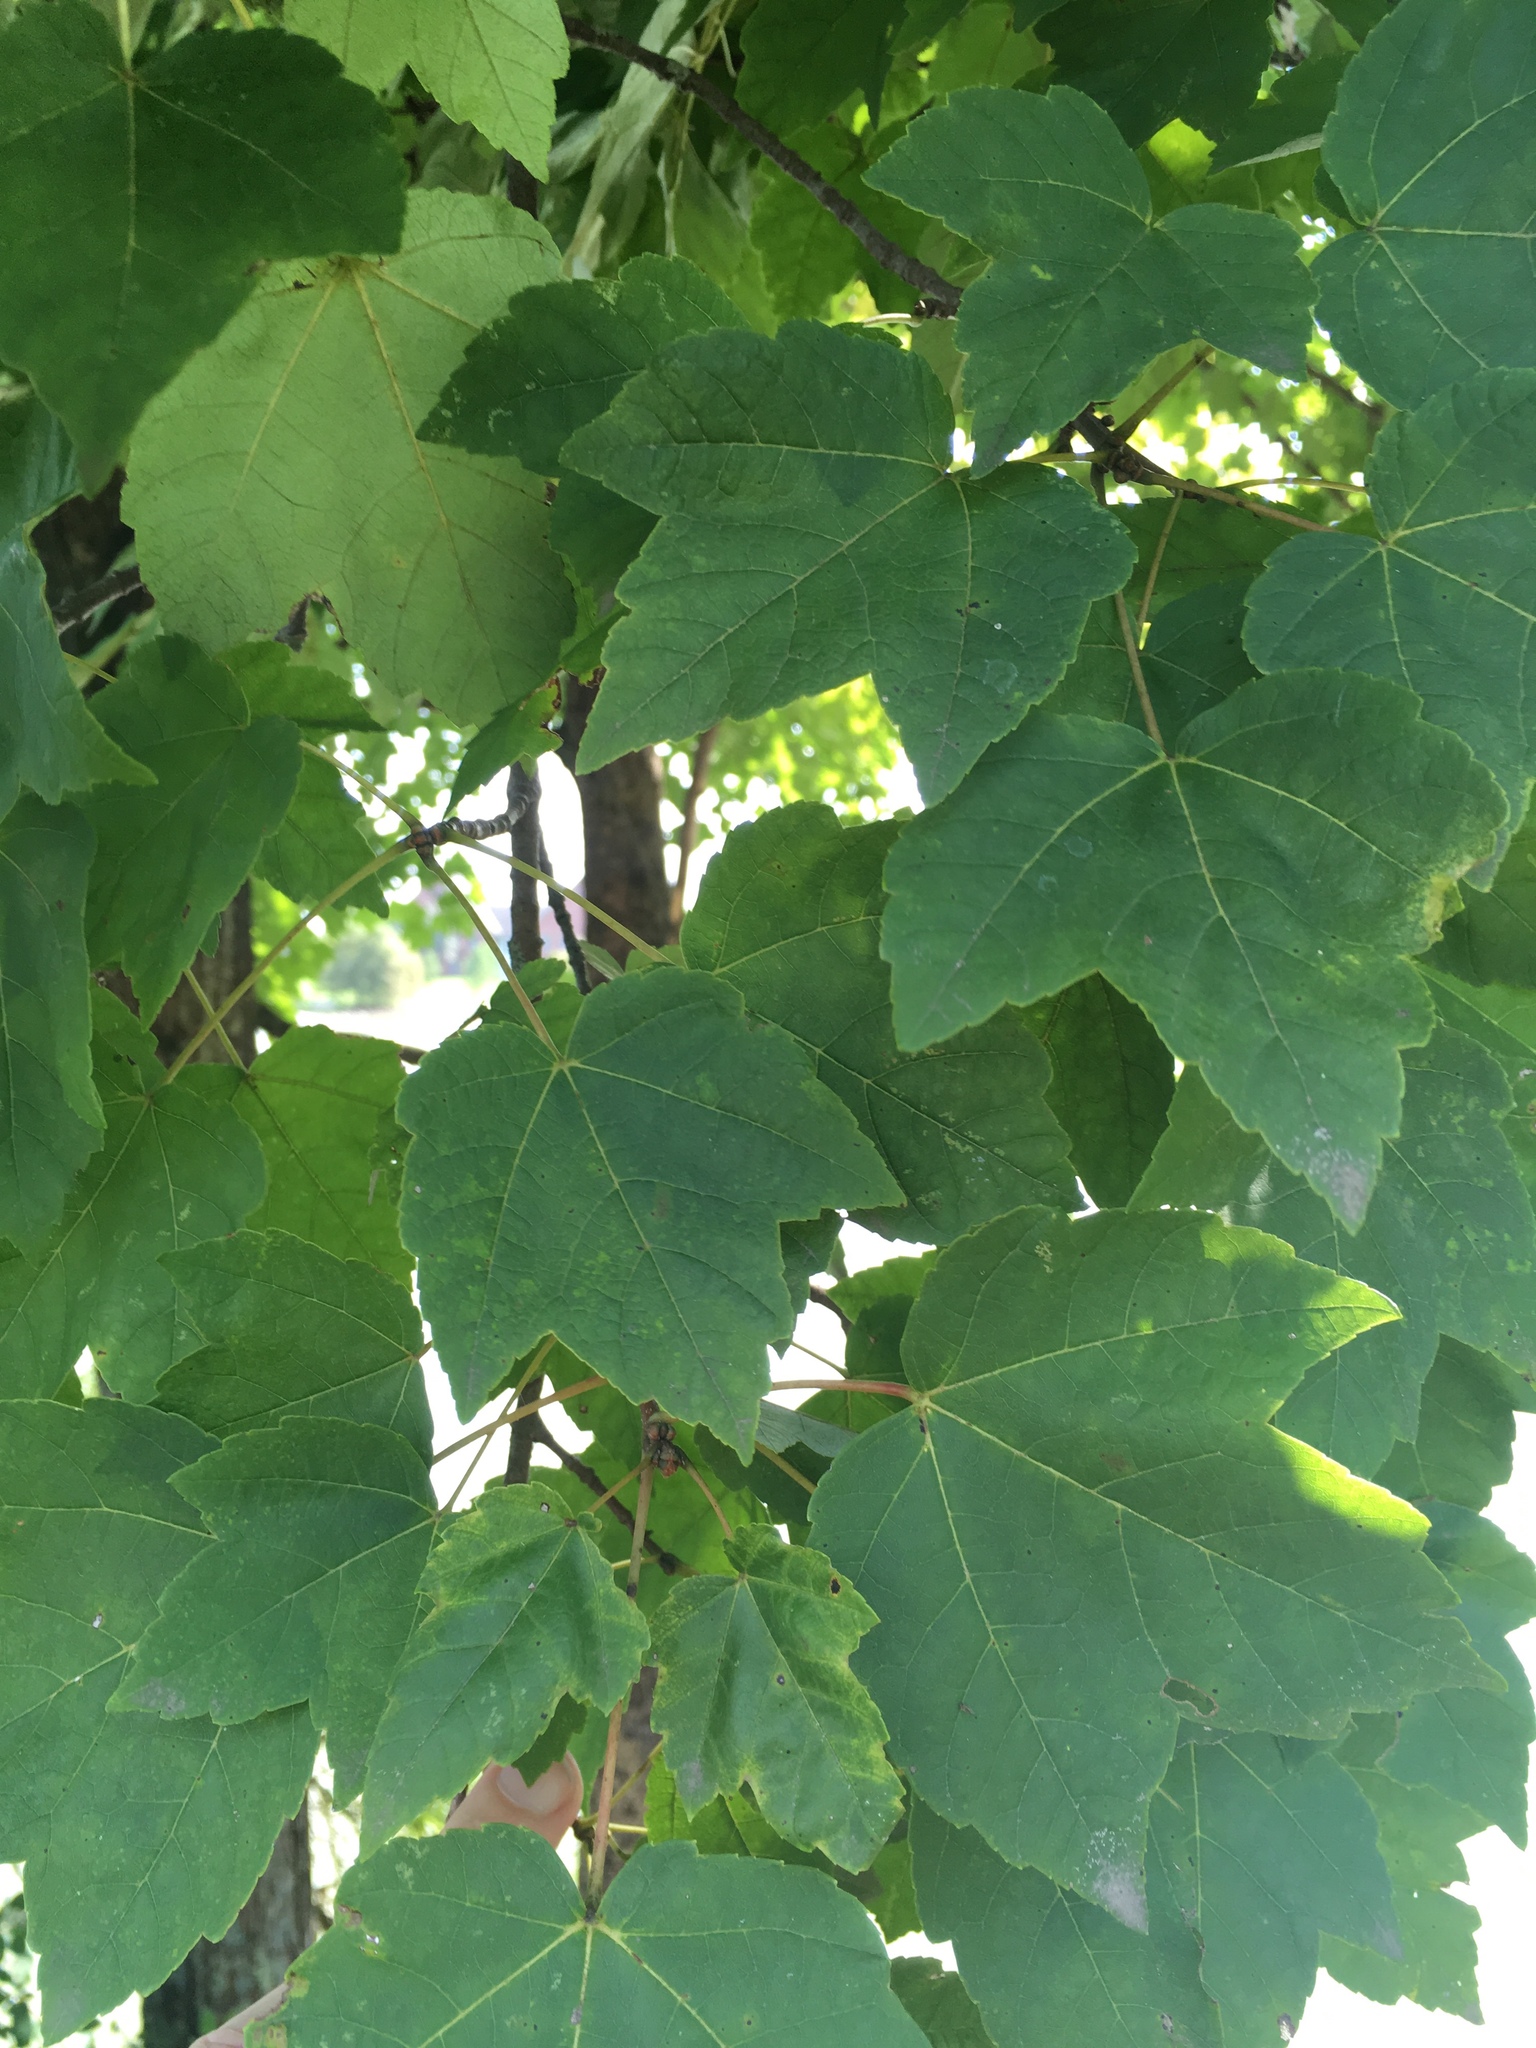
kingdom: Plantae
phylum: Tracheophyta
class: Magnoliopsida
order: Sapindales
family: Sapindaceae
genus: Acer
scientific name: Acer rubrum
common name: Red maple
